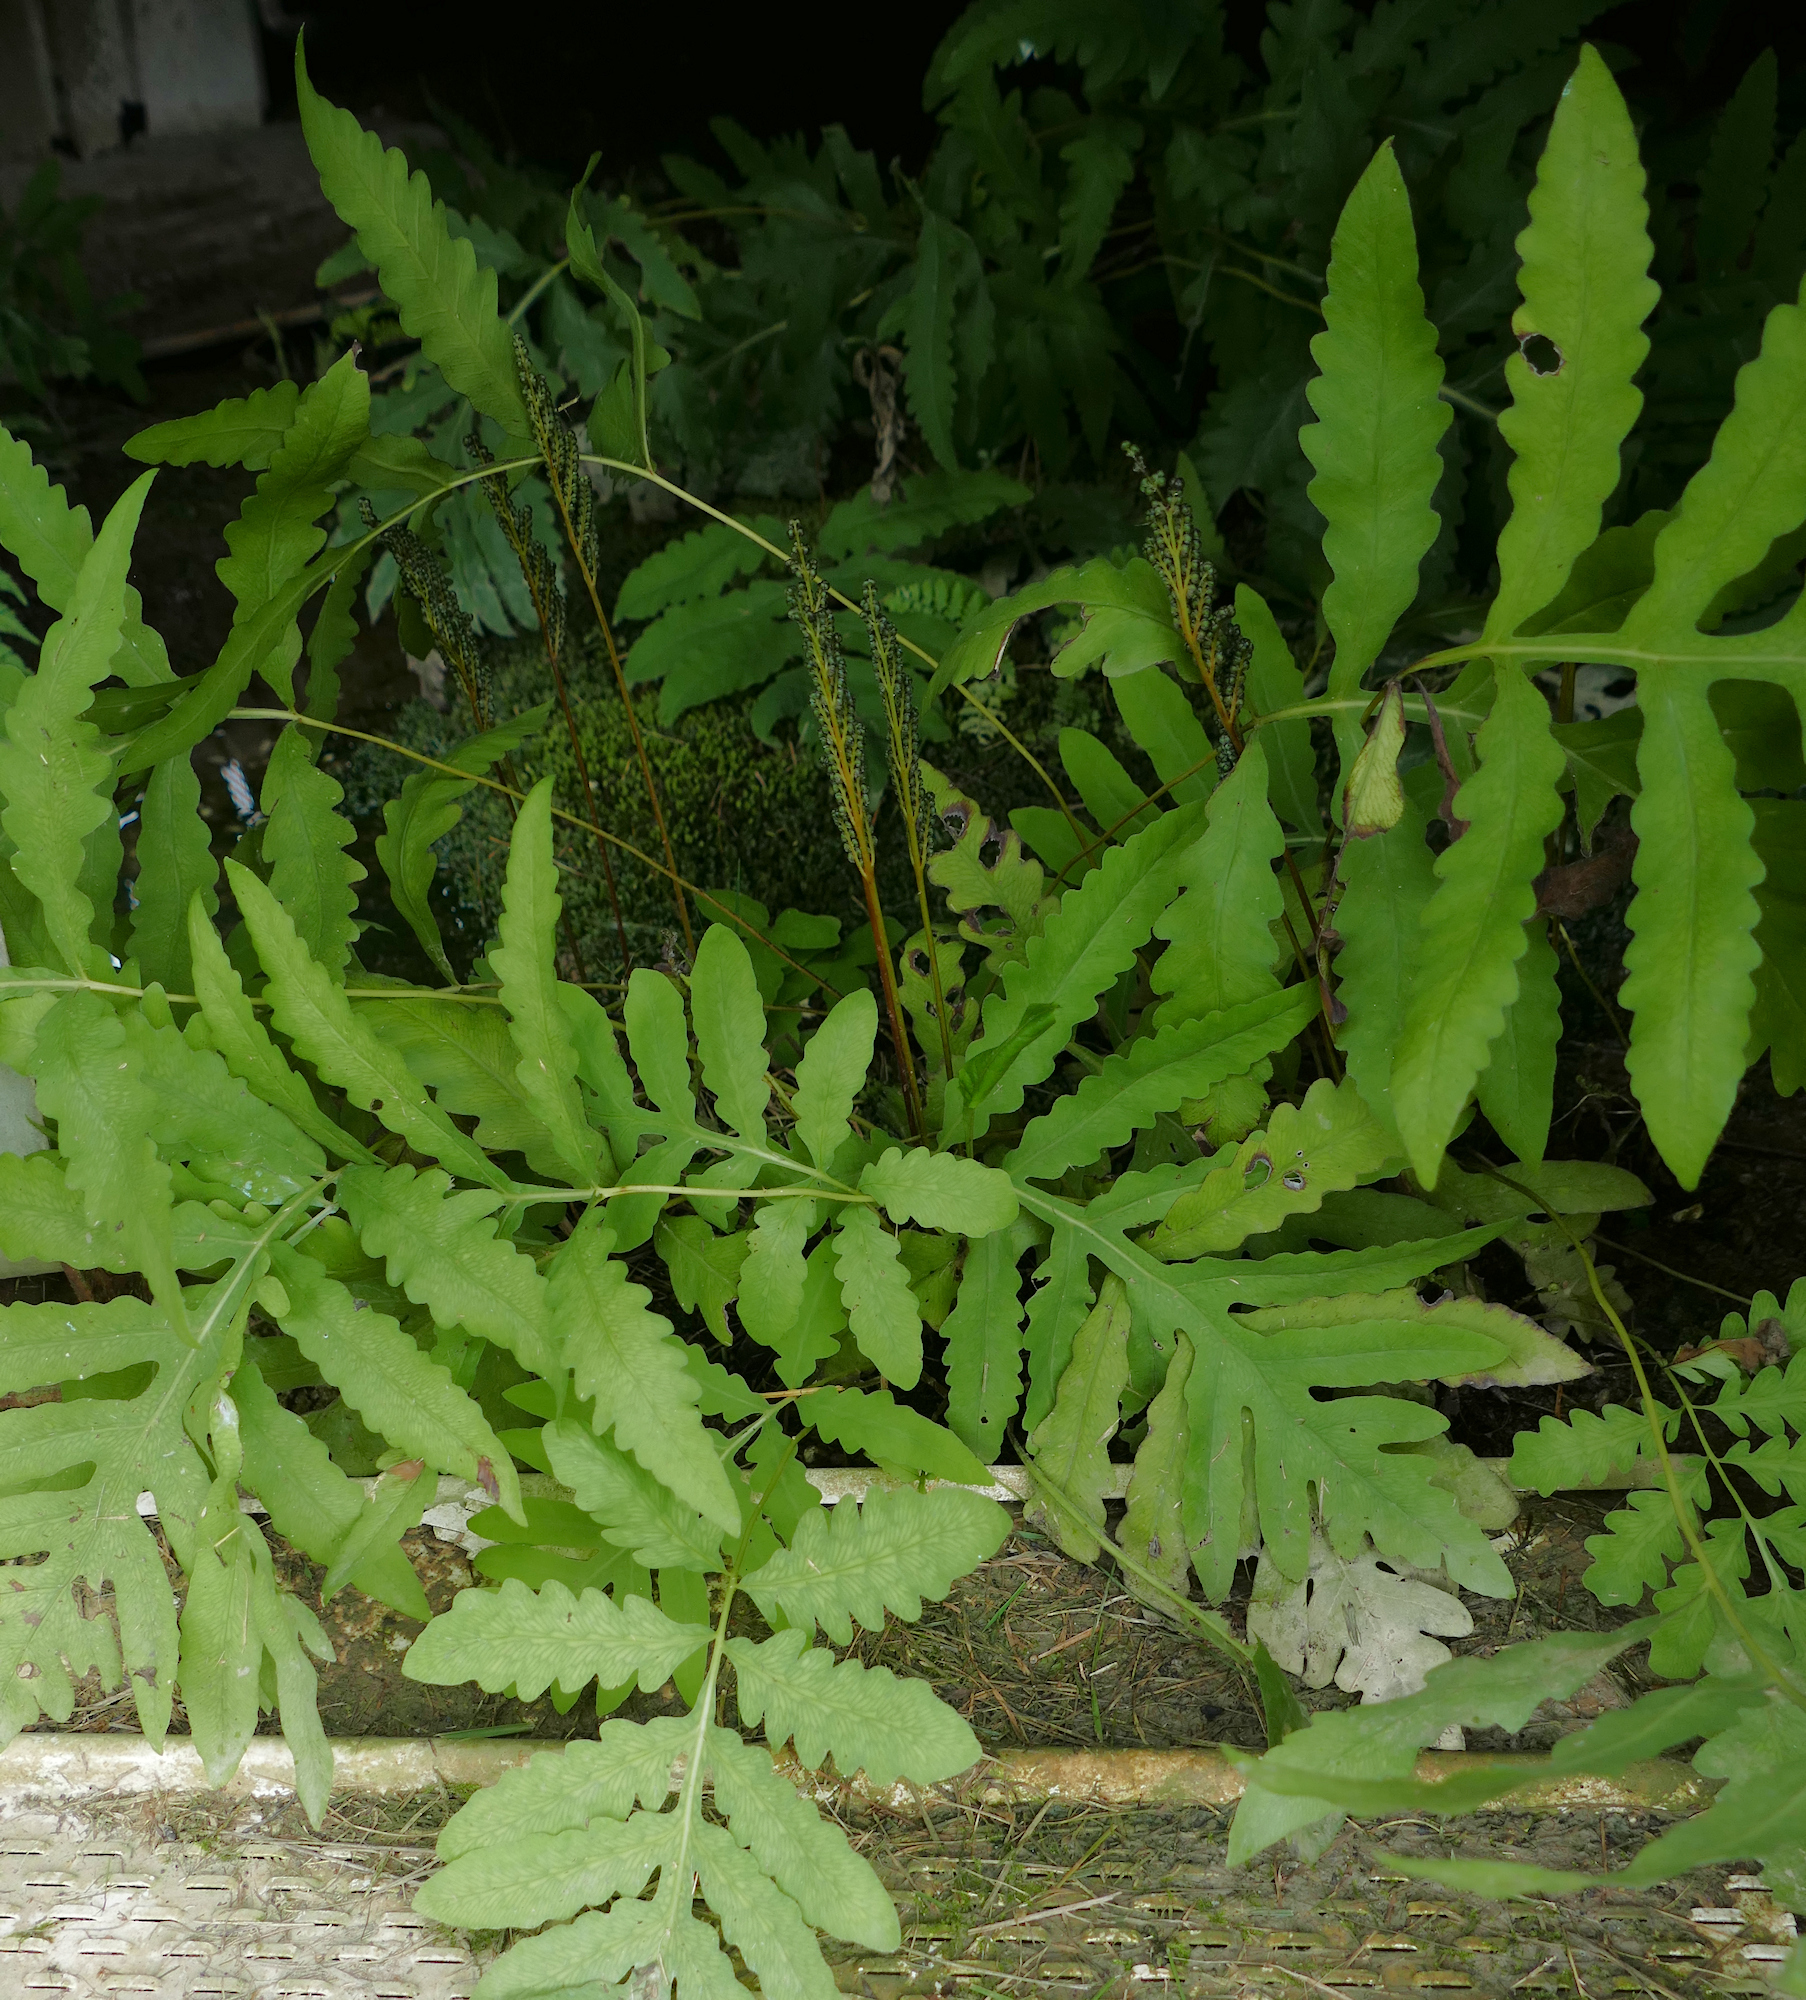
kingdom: Plantae
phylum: Tracheophyta
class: Polypodiopsida
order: Polypodiales
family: Onocleaceae
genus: Onoclea
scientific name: Onoclea sensibilis
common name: Sensitive fern
